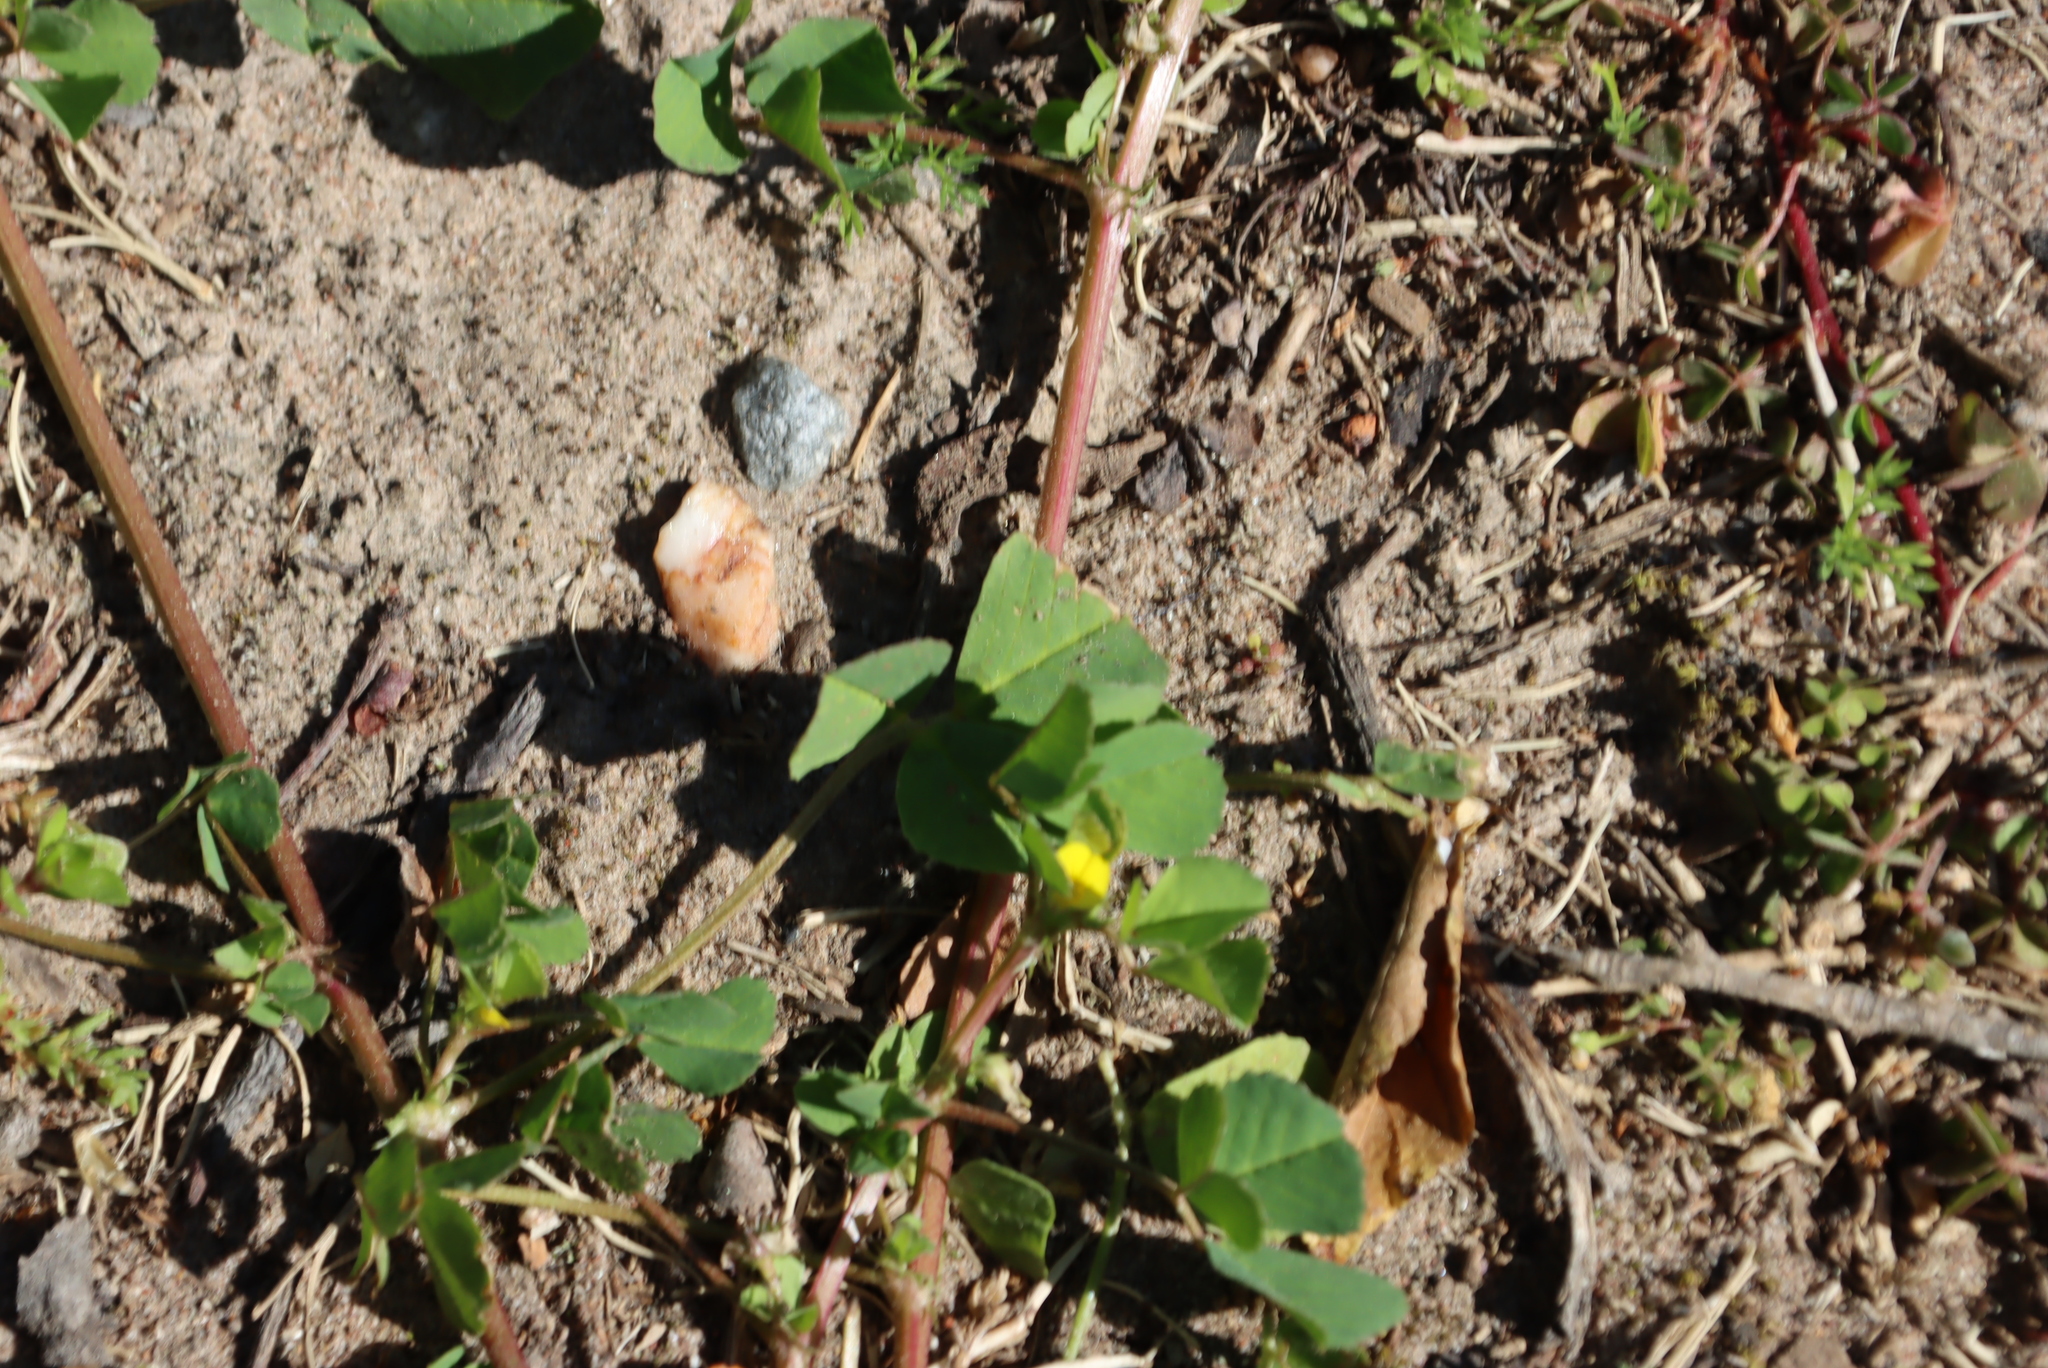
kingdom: Plantae
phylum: Tracheophyta
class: Magnoliopsida
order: Fabales
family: Fabaceae
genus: Medicago
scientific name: Medicago polymorpha
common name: Burclover
